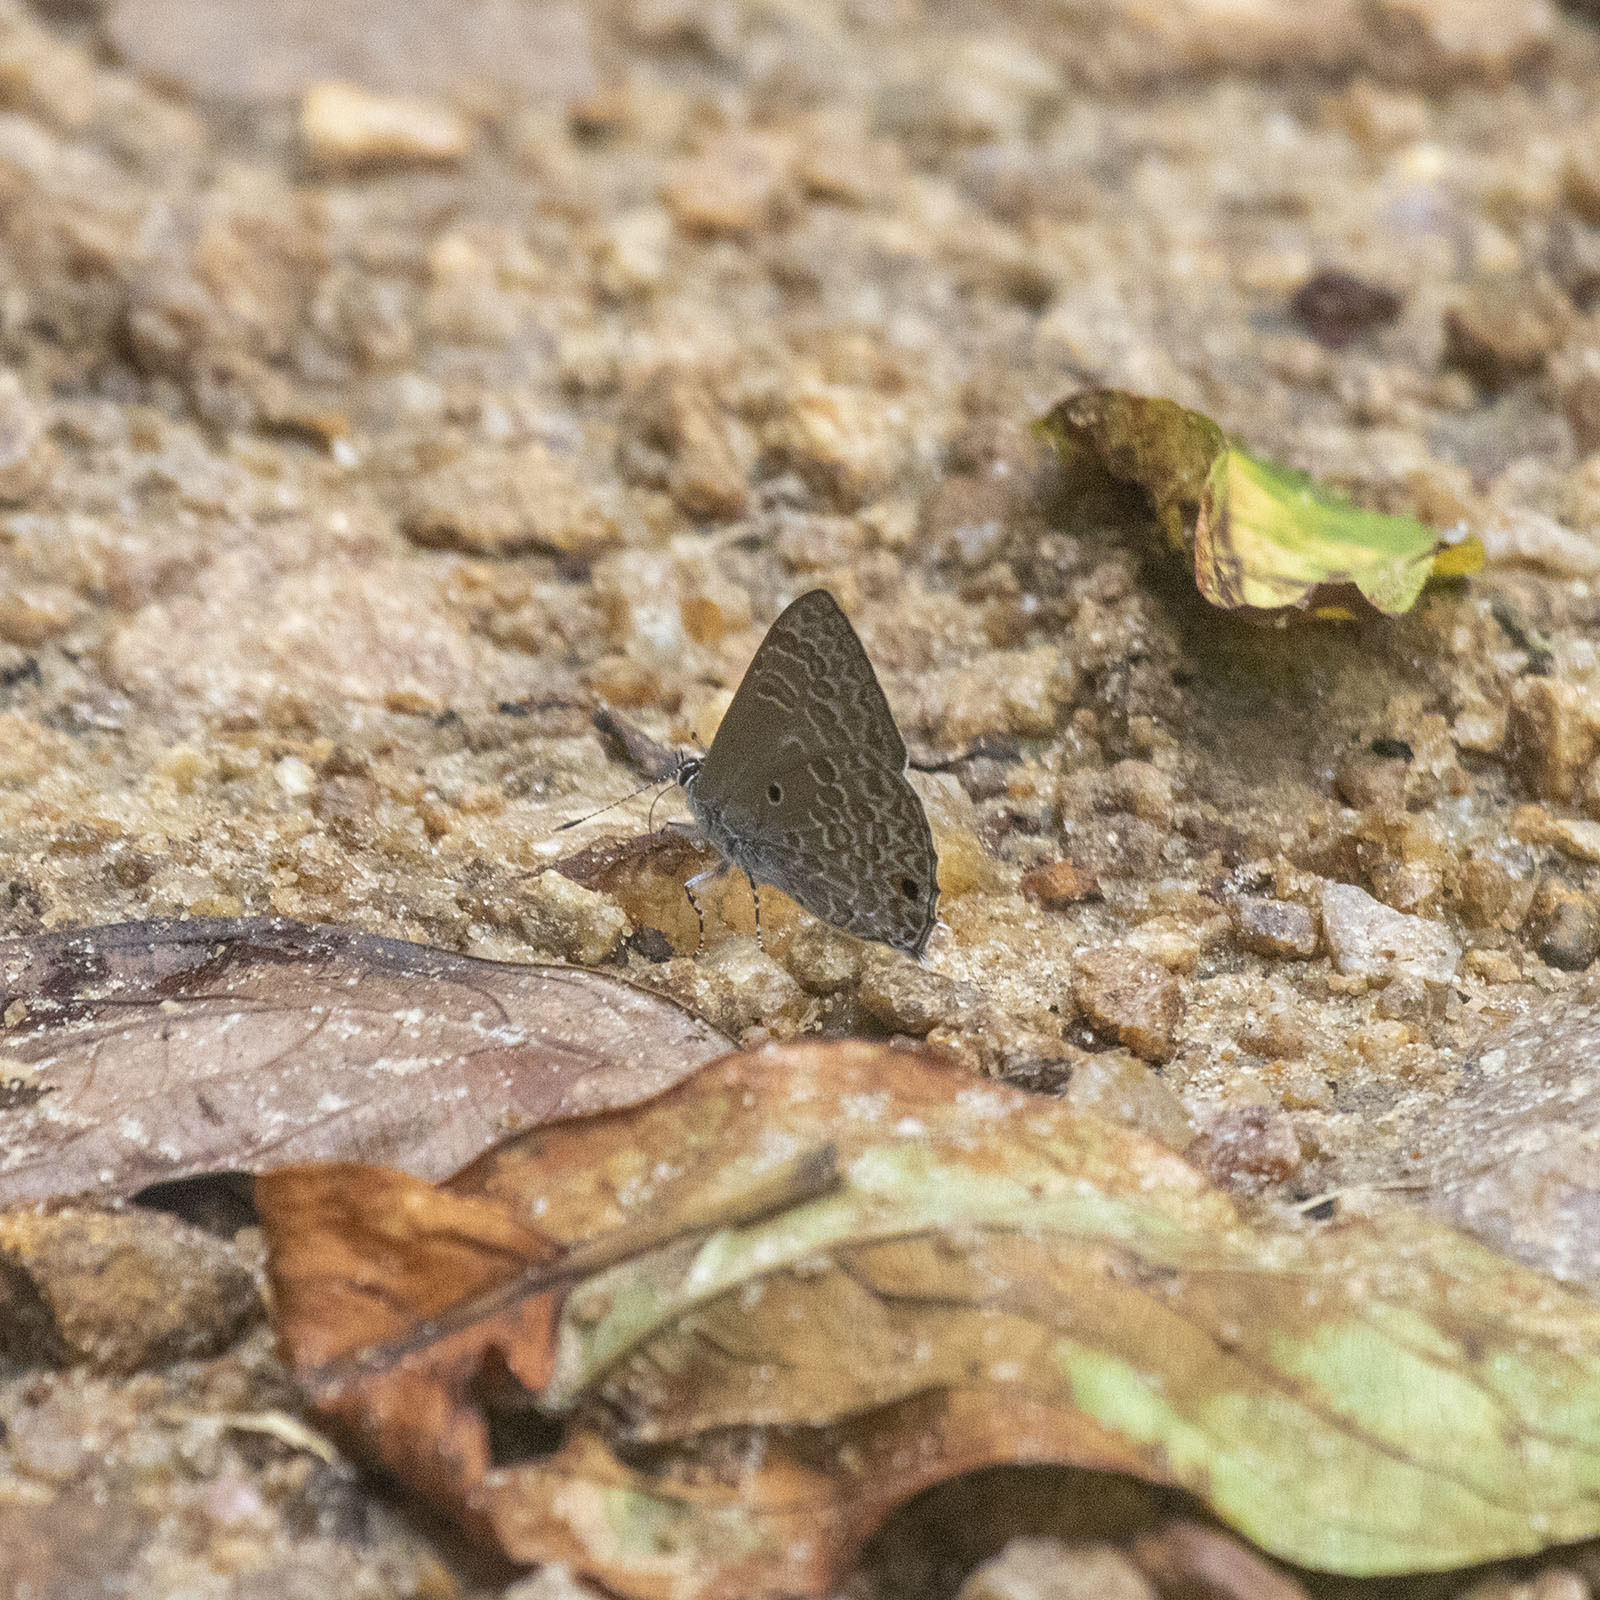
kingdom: Animalia
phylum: Arthropoda
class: Insecta
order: Lepidoptera
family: Lycaenidae
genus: Anthene
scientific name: Anthene lycaenina
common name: Pointed ciliate blue
